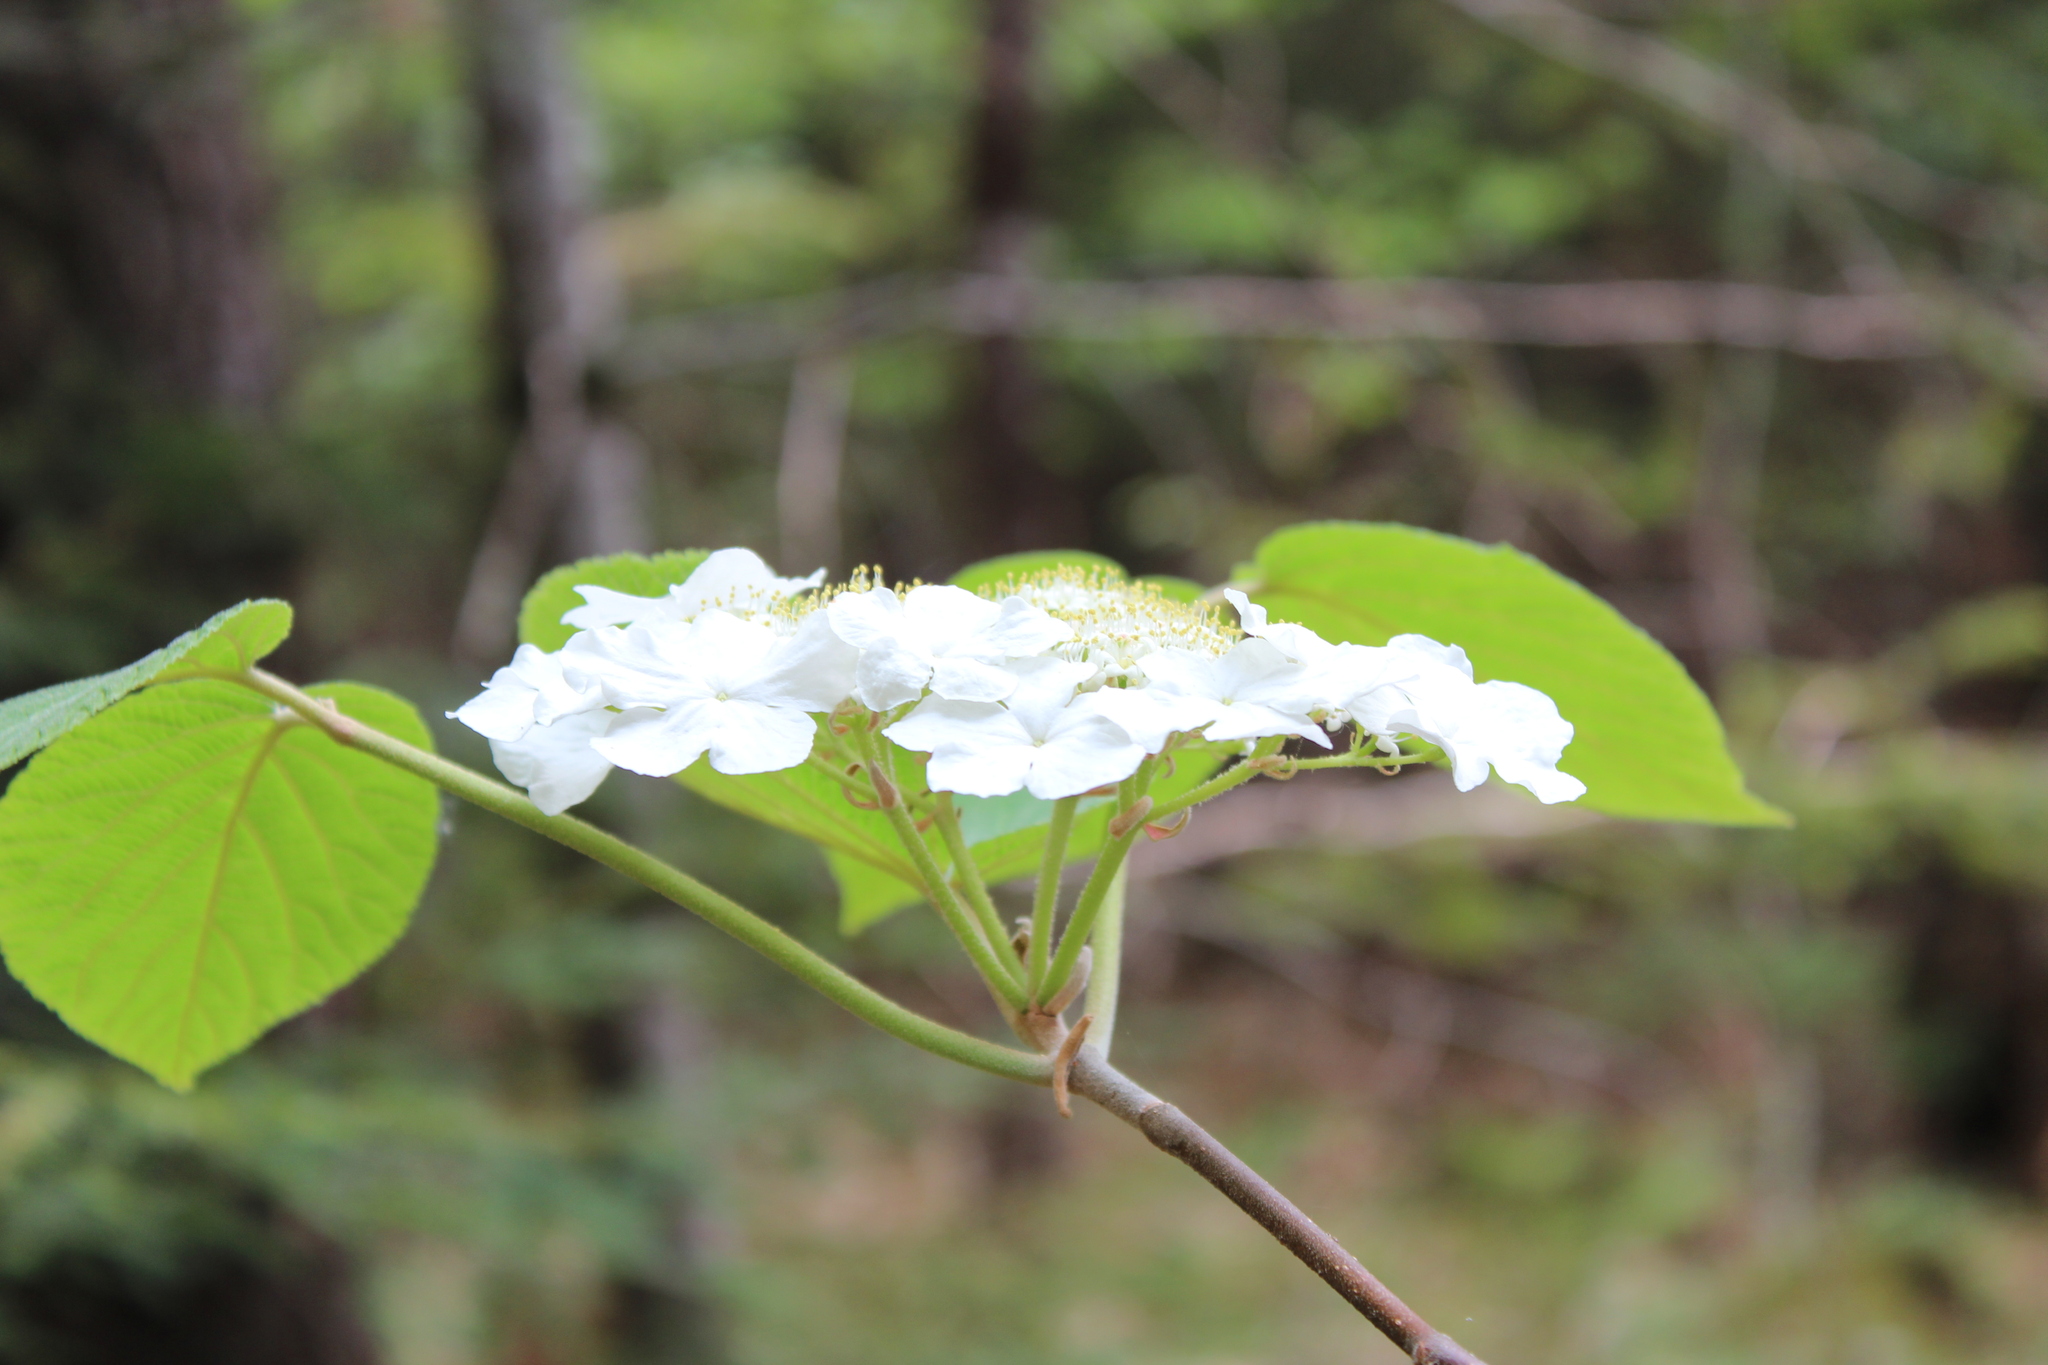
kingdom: Plantae
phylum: Tracheophyta
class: Magnoliopsida
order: Dipsacales
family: Viburnaceae
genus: Viburnum
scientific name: Viburnum lantanoides
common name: Hobblebush
